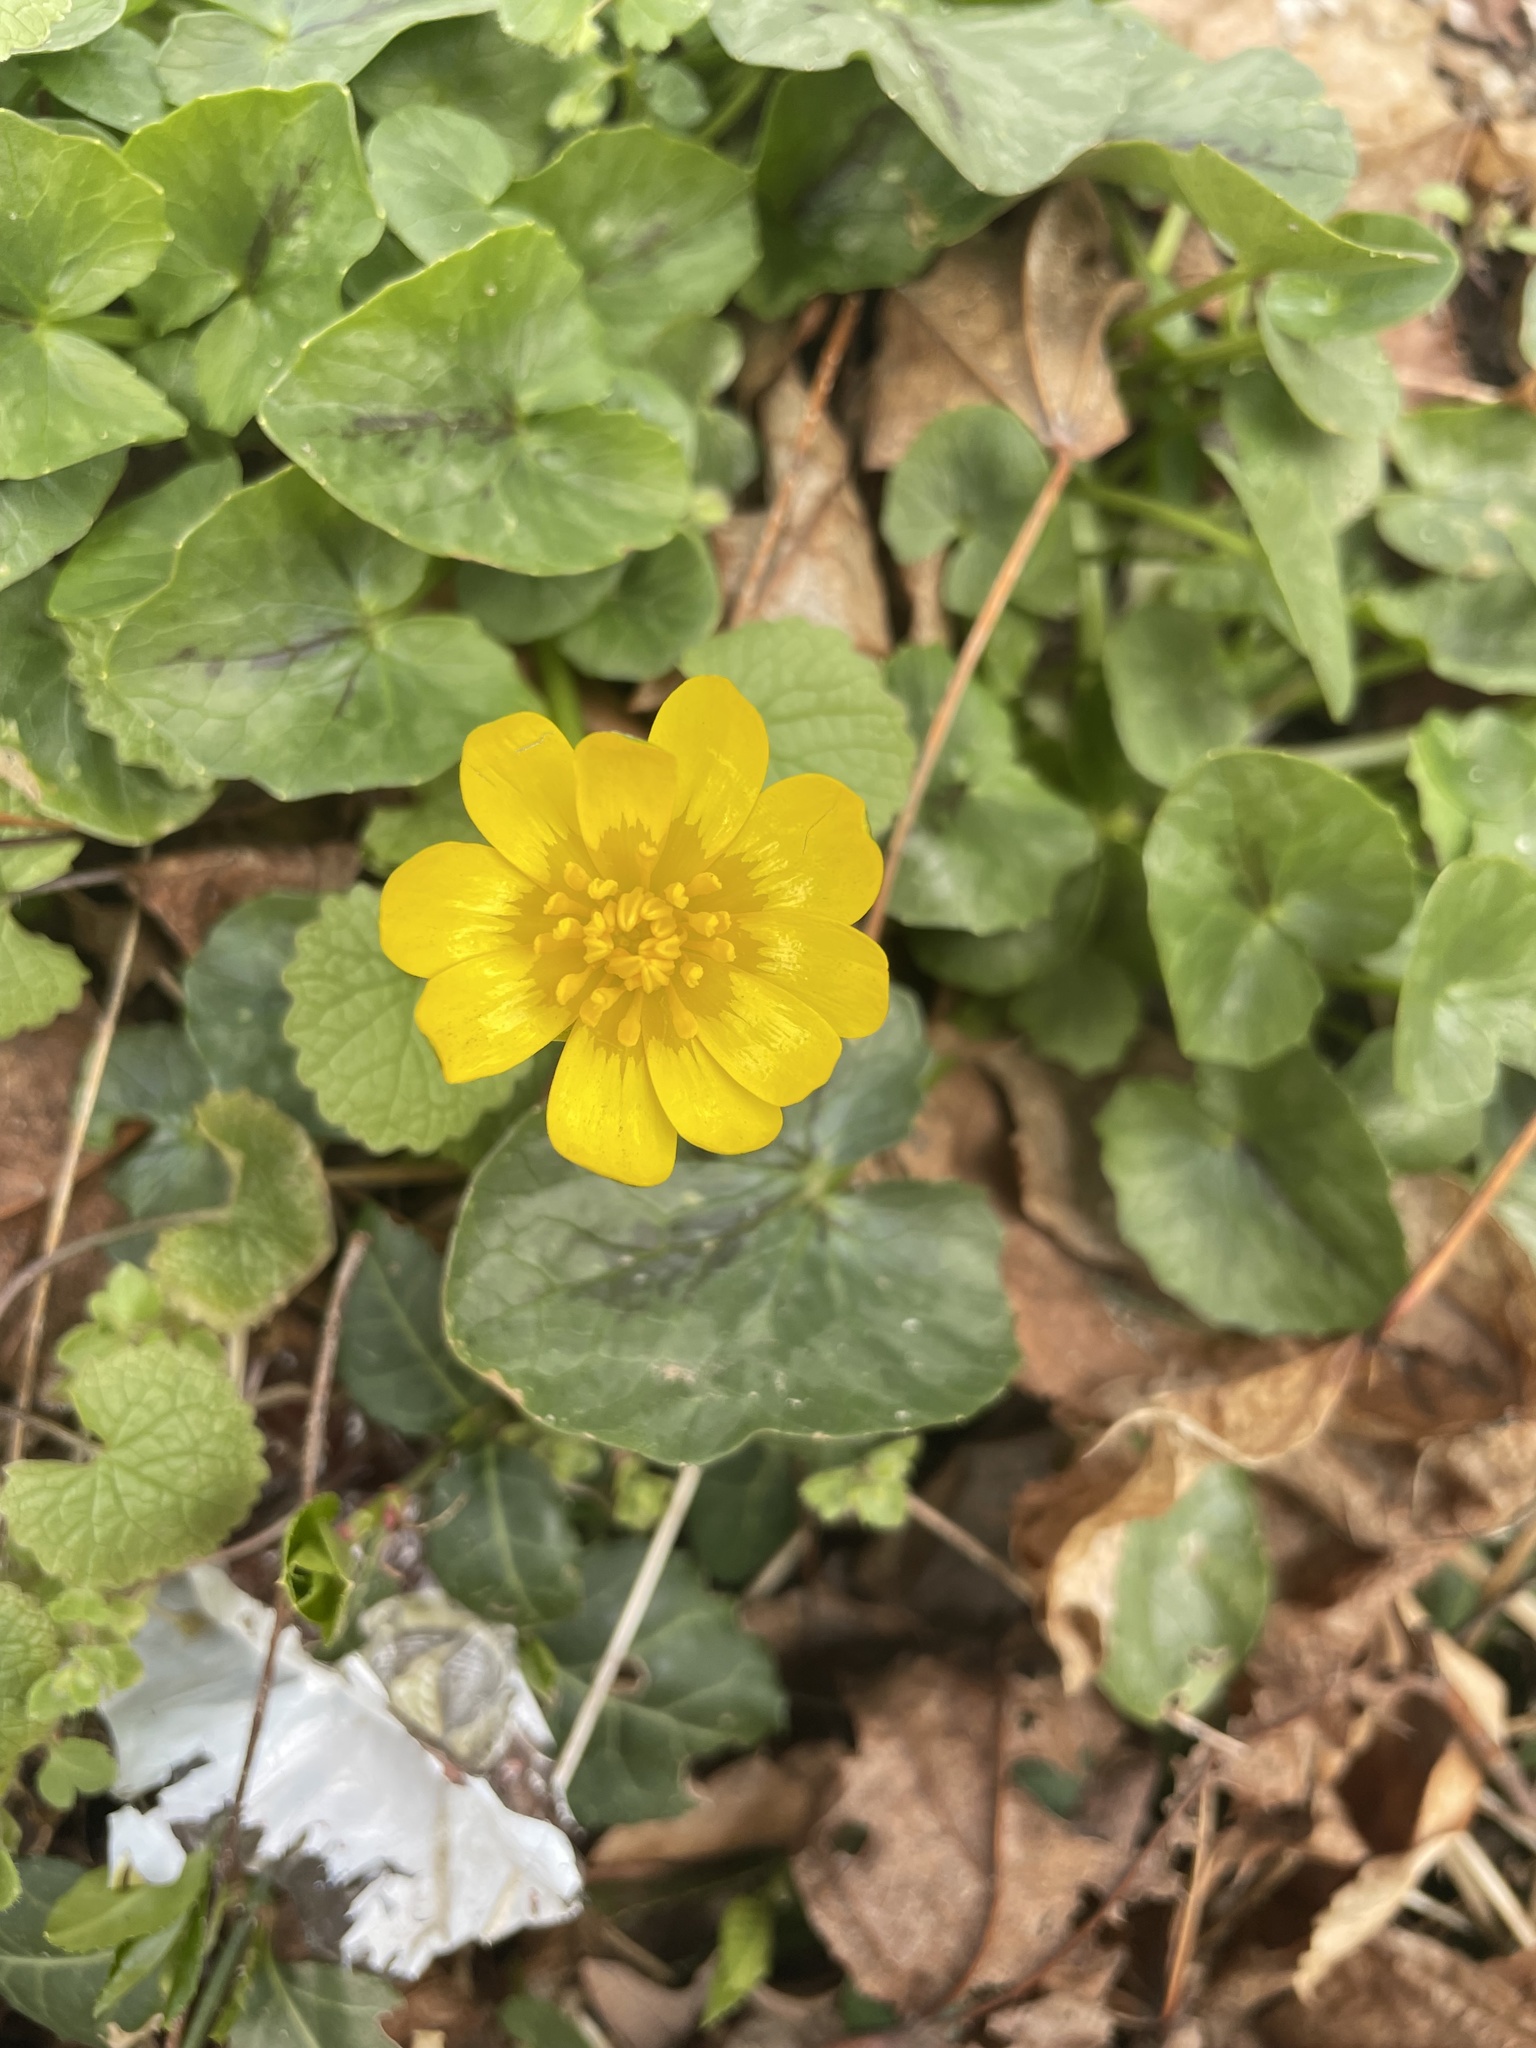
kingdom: Plantae
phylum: Tracheophyta
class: Magnoliopsida
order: Ranunculales
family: Ranunculaceae
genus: Ficaria
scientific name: Ficaria verna
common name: Lesser celandine
